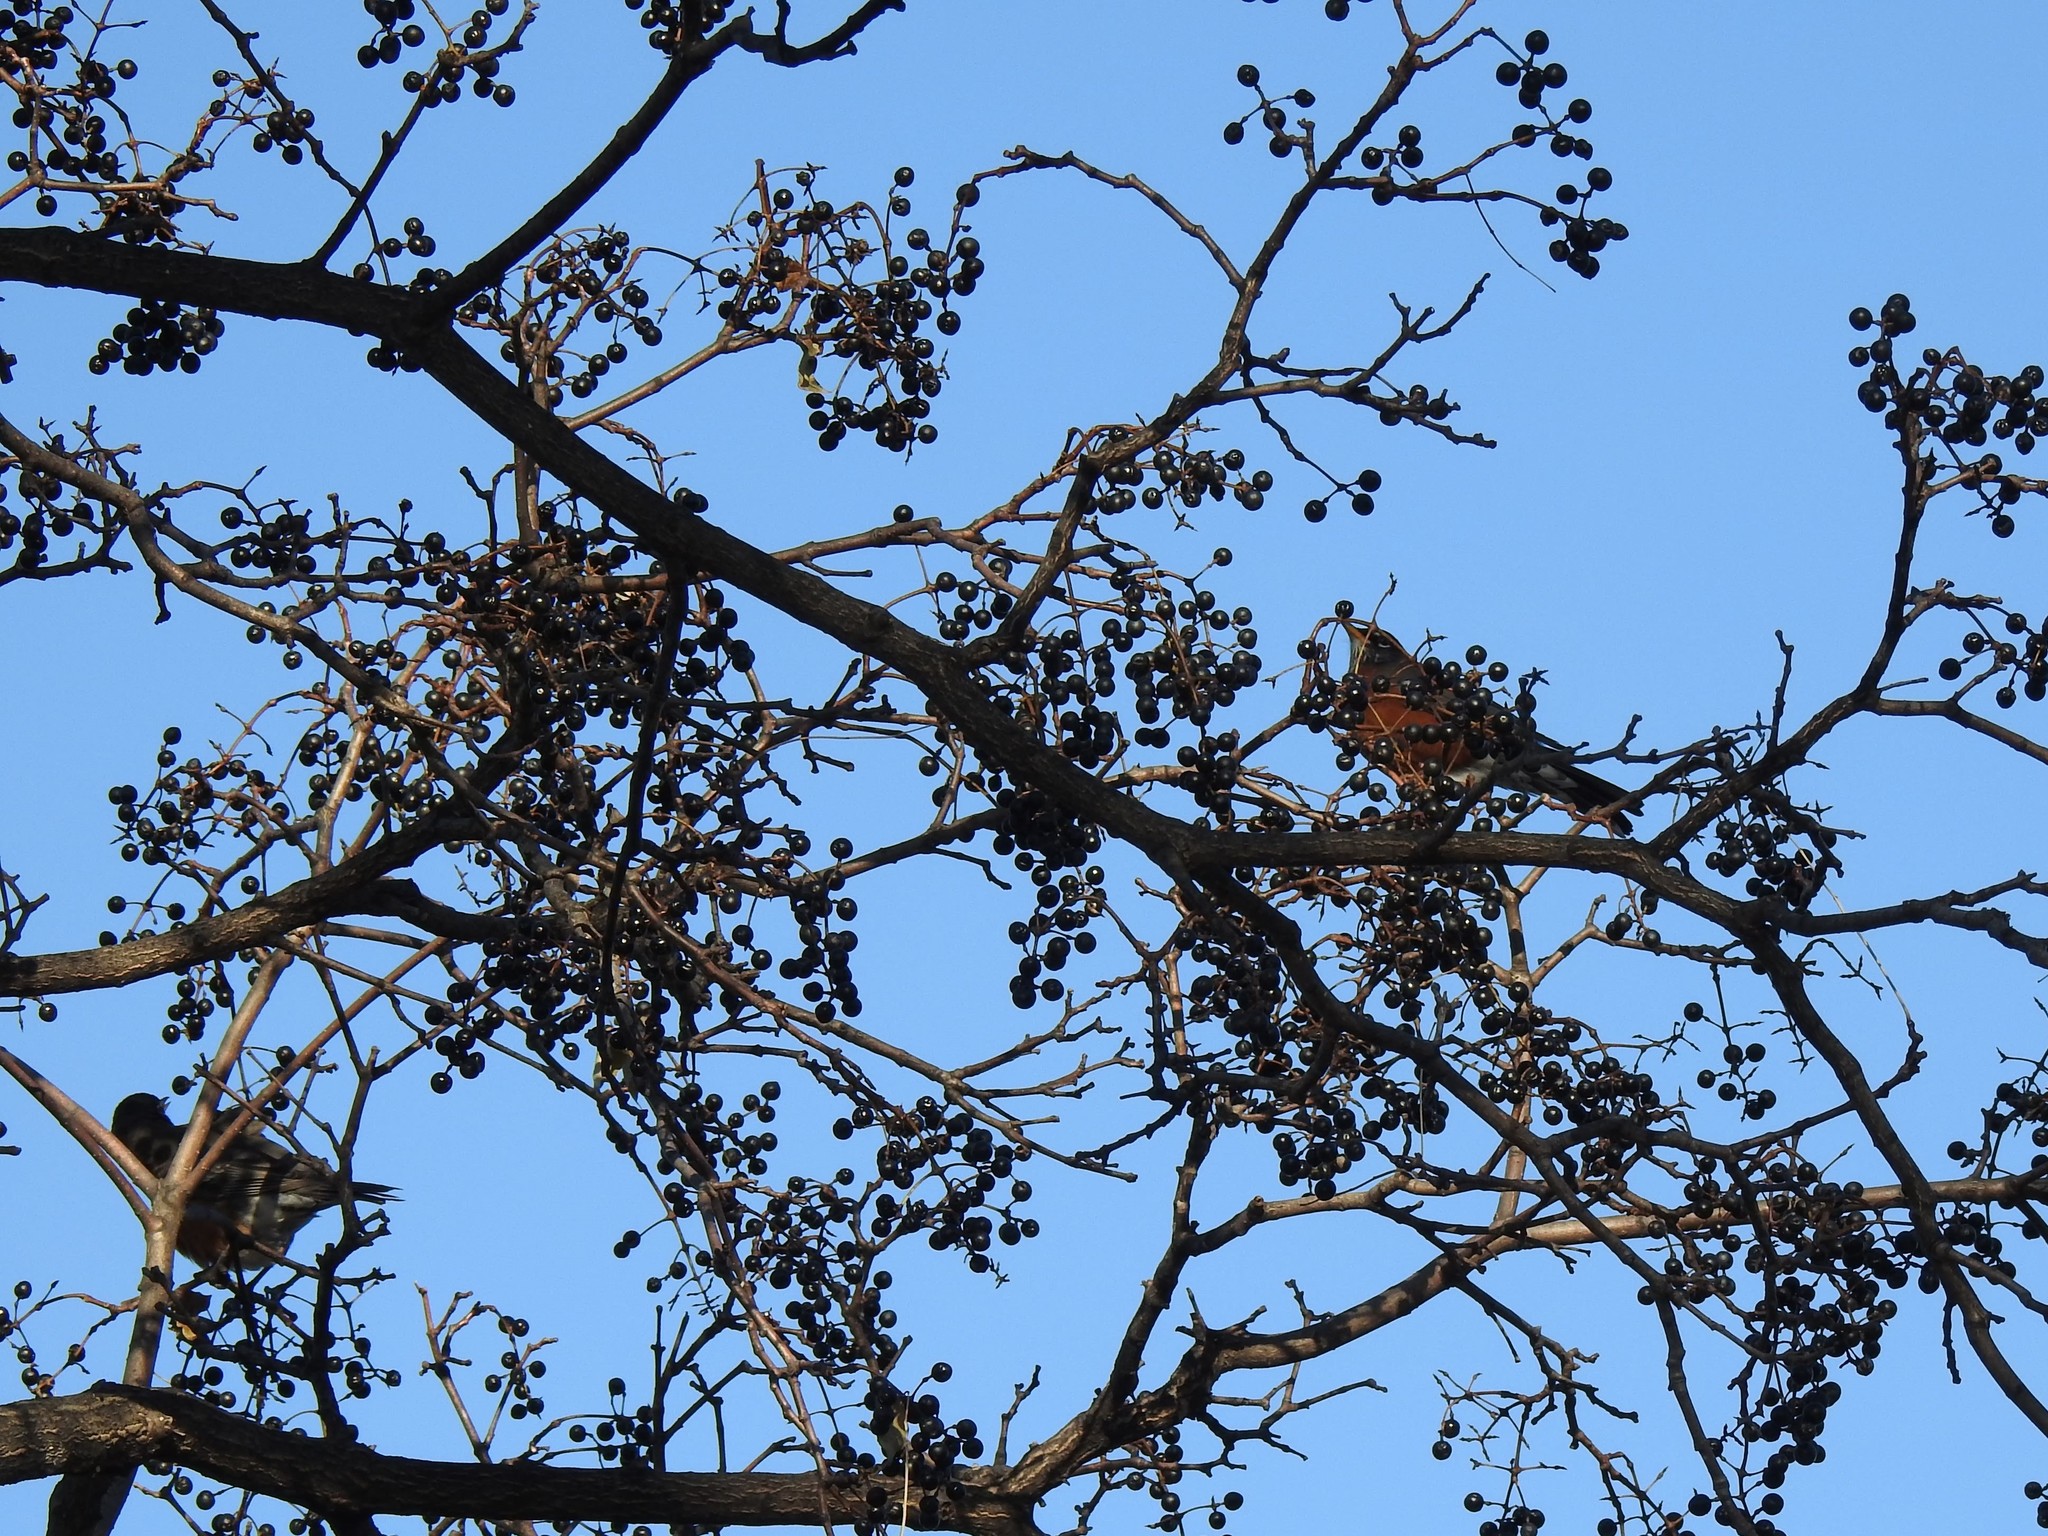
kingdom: Animalia
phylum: Chordata
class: Aves
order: Passeriformes
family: Turdidae
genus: Turdus
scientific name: Turdus migratorius
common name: American robin
